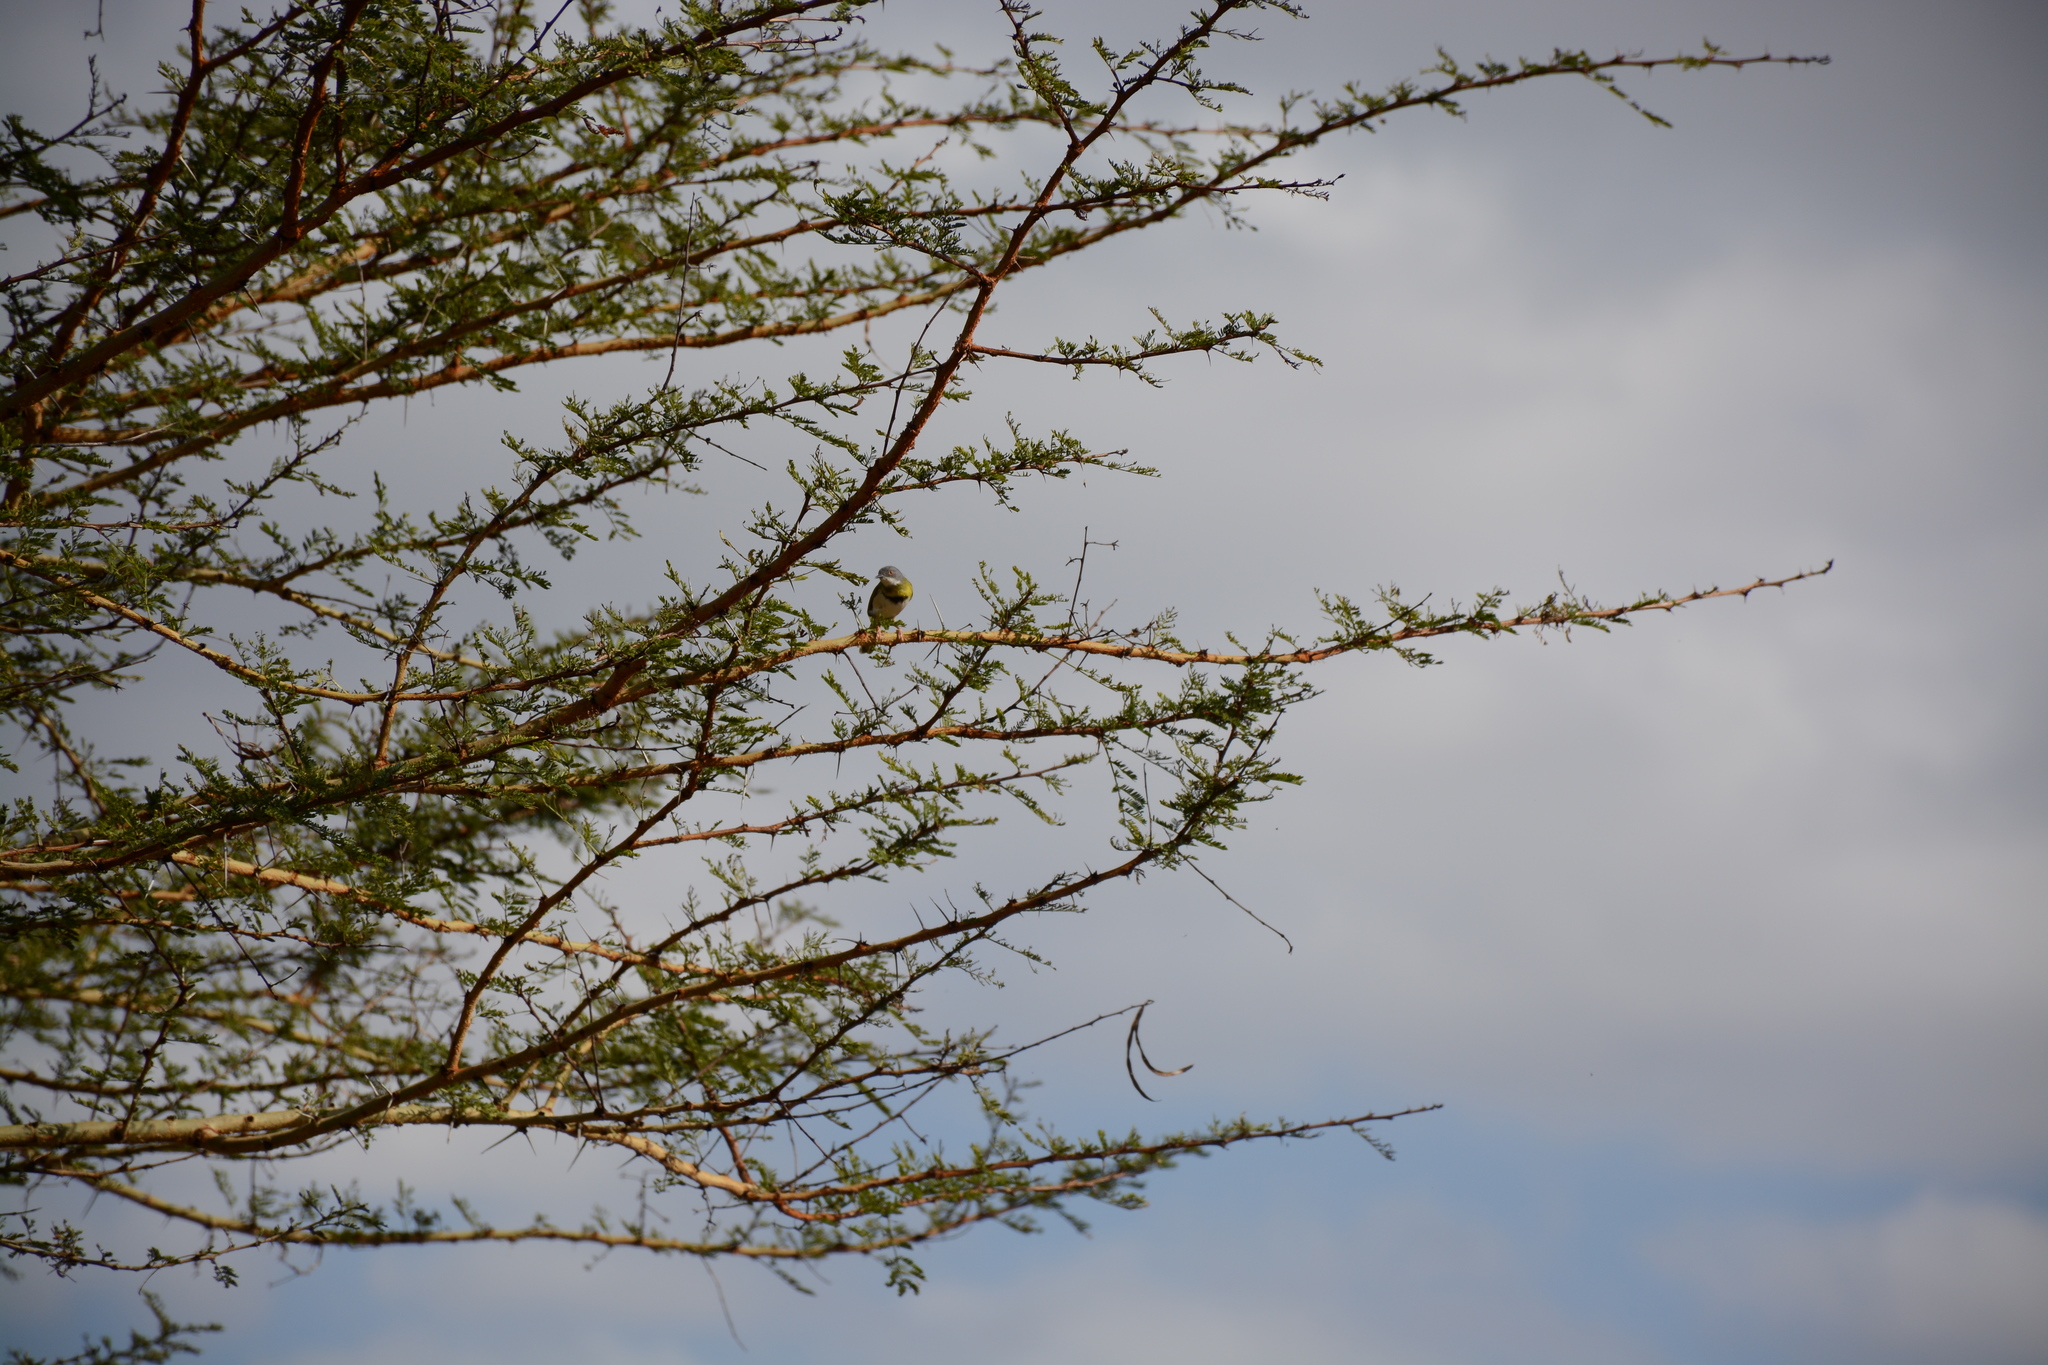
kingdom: Animalia
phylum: Chordata
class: Aves
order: Passeriformes
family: Cisticolidae
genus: Apalis
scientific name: Apalis flavida
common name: Yellow-breasted apalis
